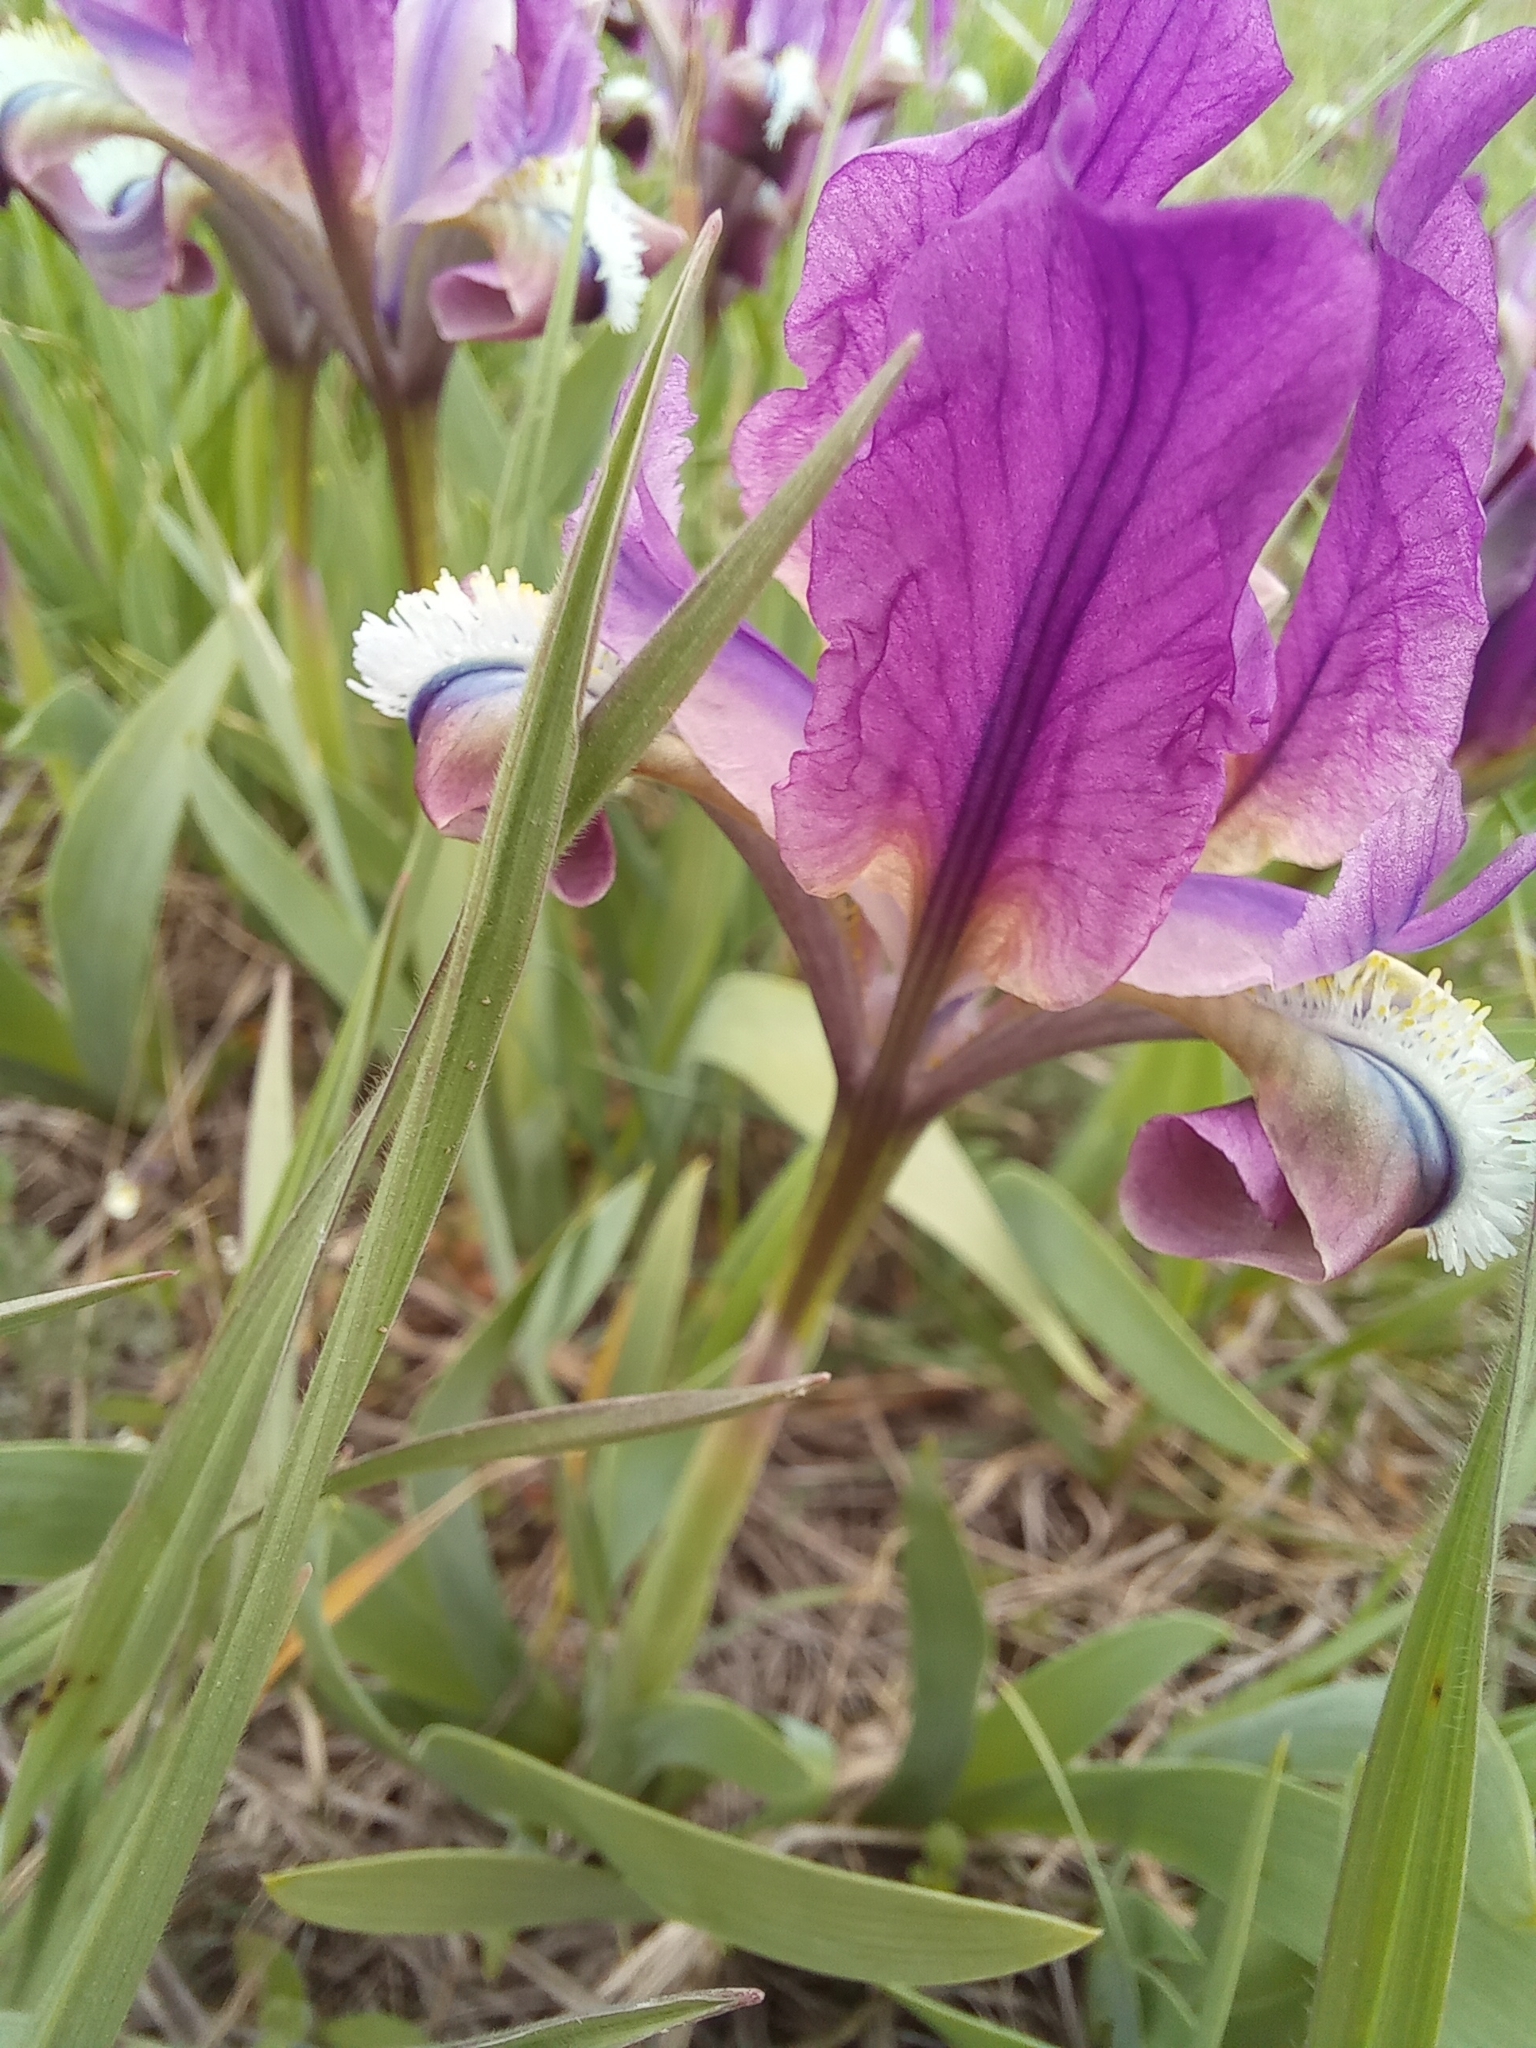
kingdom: Plantae
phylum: Tracheophyta
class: Liliopsida
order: Asparagales
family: Iridaceae
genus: Iris
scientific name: Iris pumila
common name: Dwarf iris
